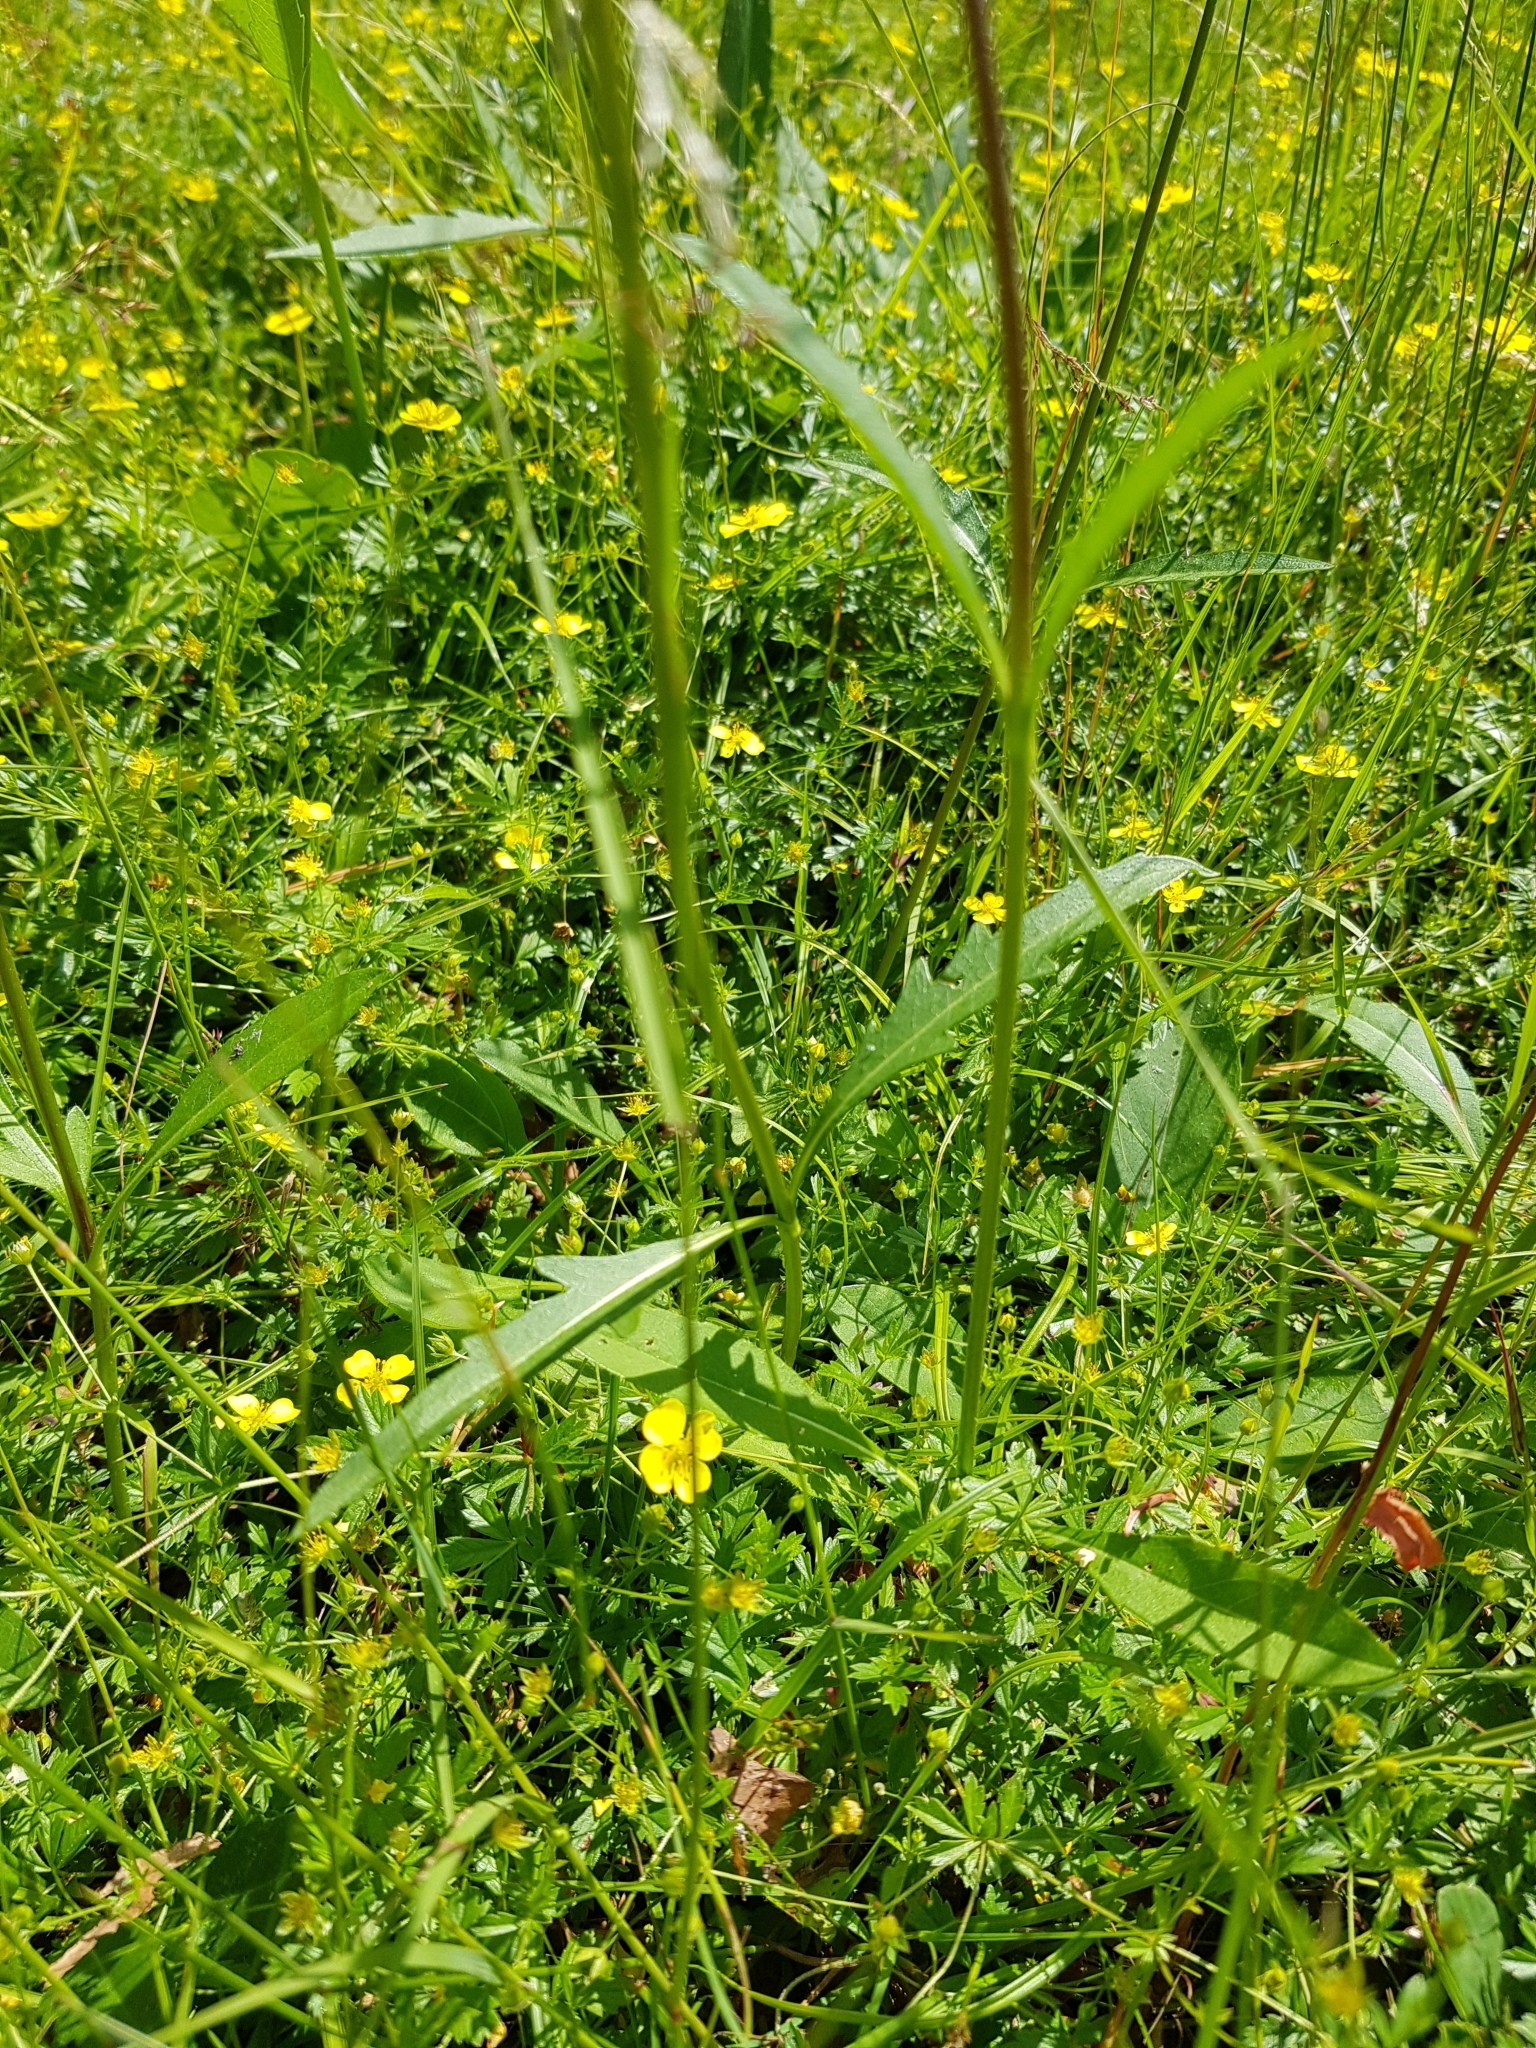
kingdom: Plantae
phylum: Tracheophyta
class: Magnoliopsida
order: Dipsacales
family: Caprifoliaceae
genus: Succisa
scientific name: Succisa pratensis
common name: Devil's-bit
